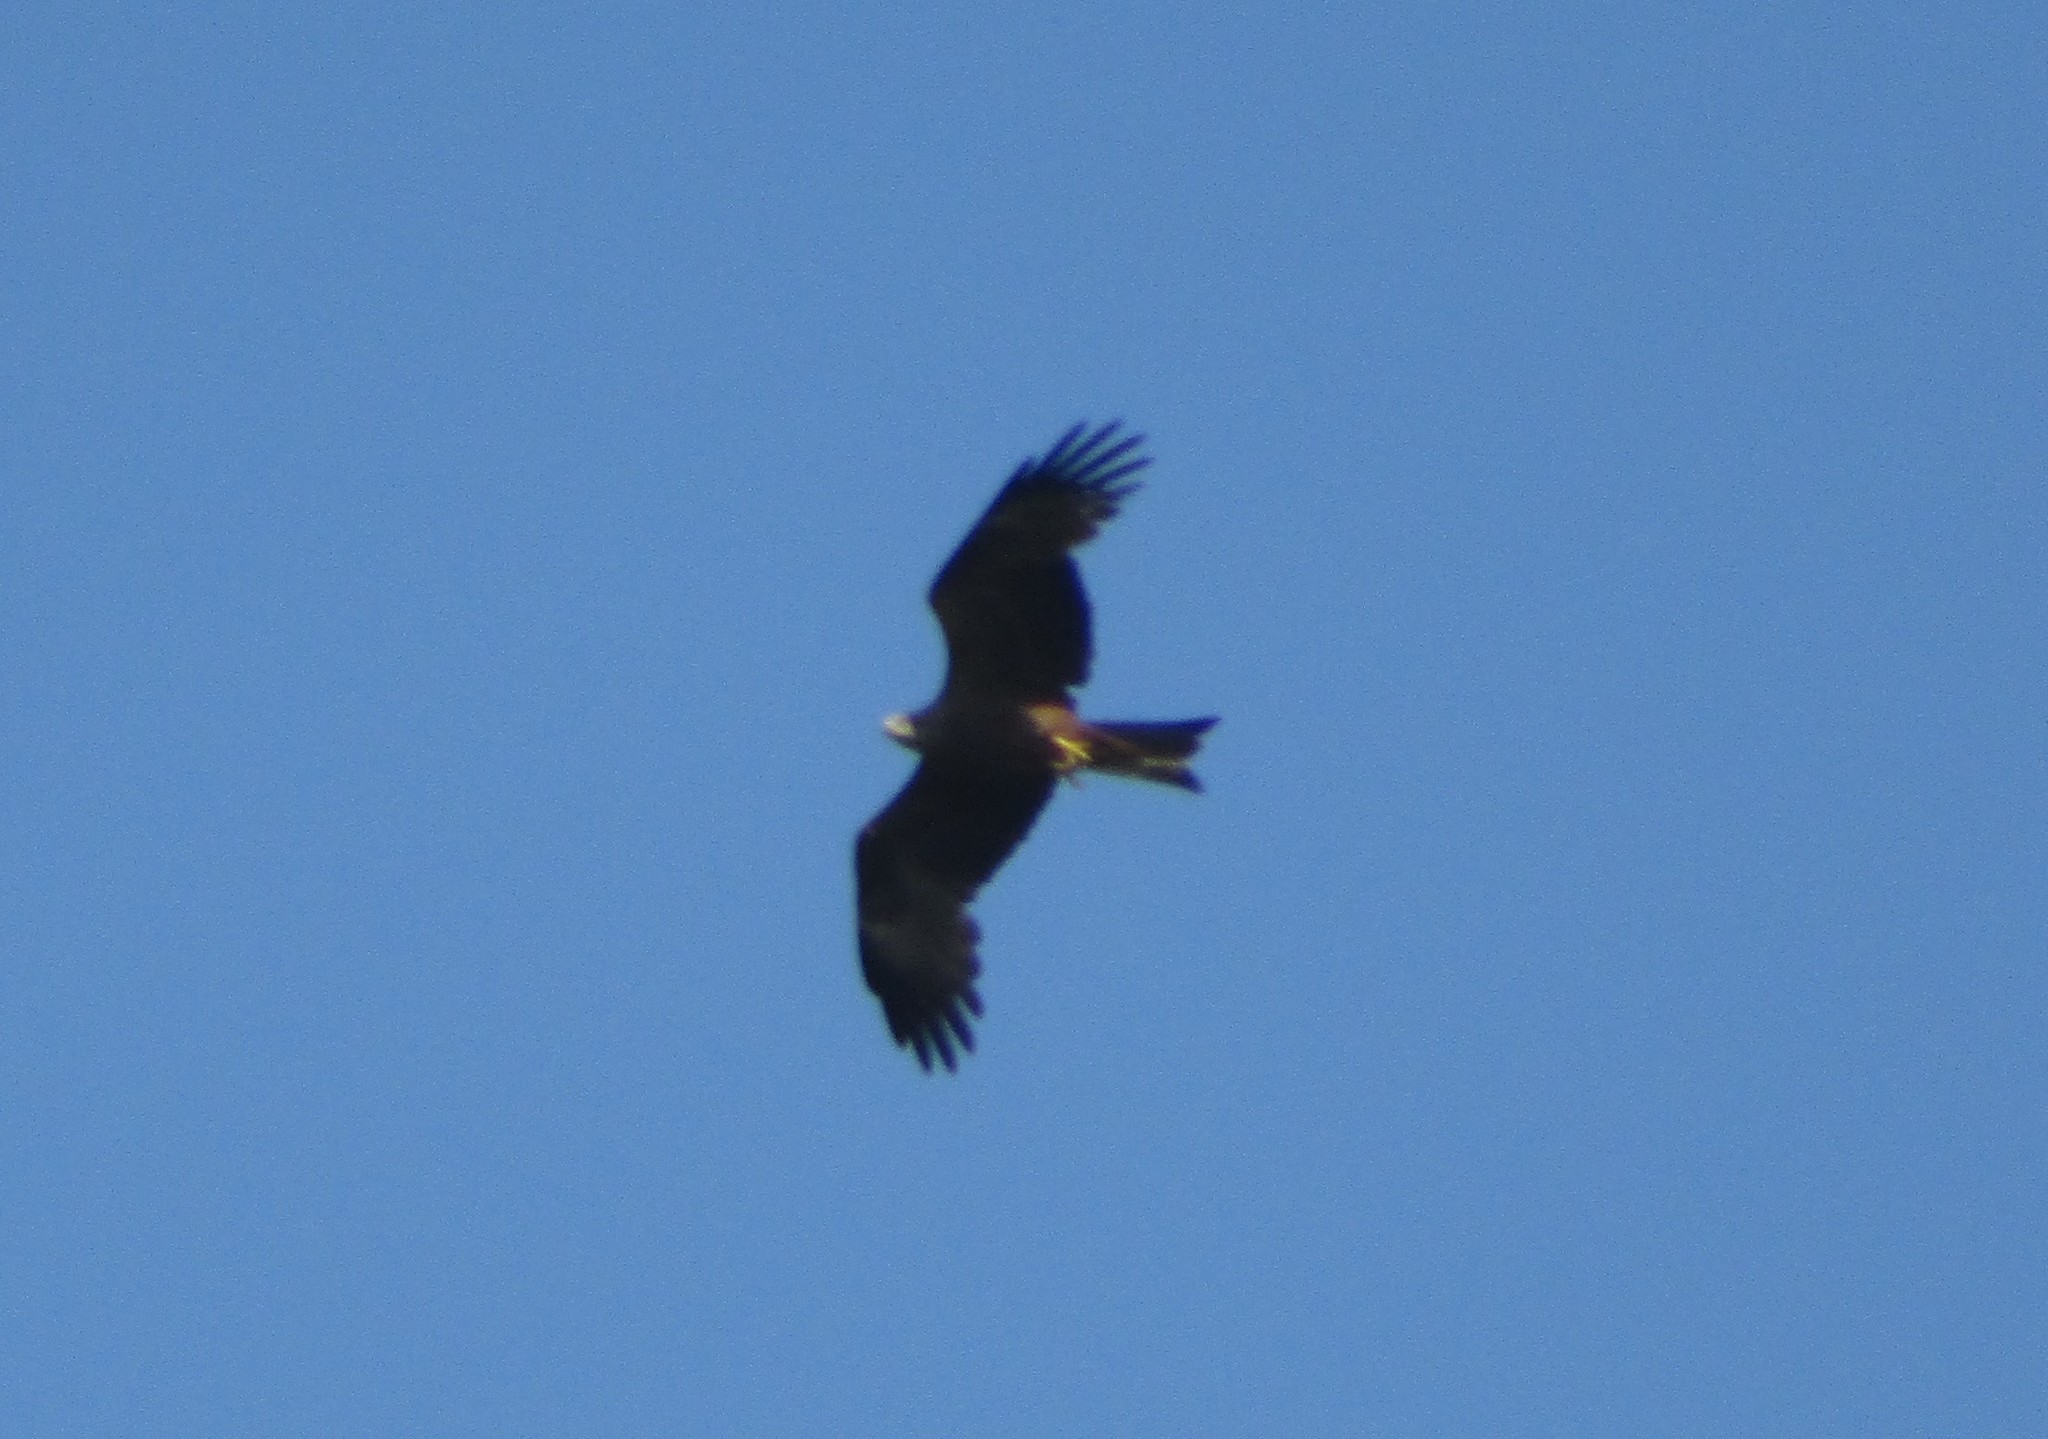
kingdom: Animalia
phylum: Chordata
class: Aves
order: Accipitriformes
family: Accipitridae
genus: Milvus
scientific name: Milvus migrans
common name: Black kite
